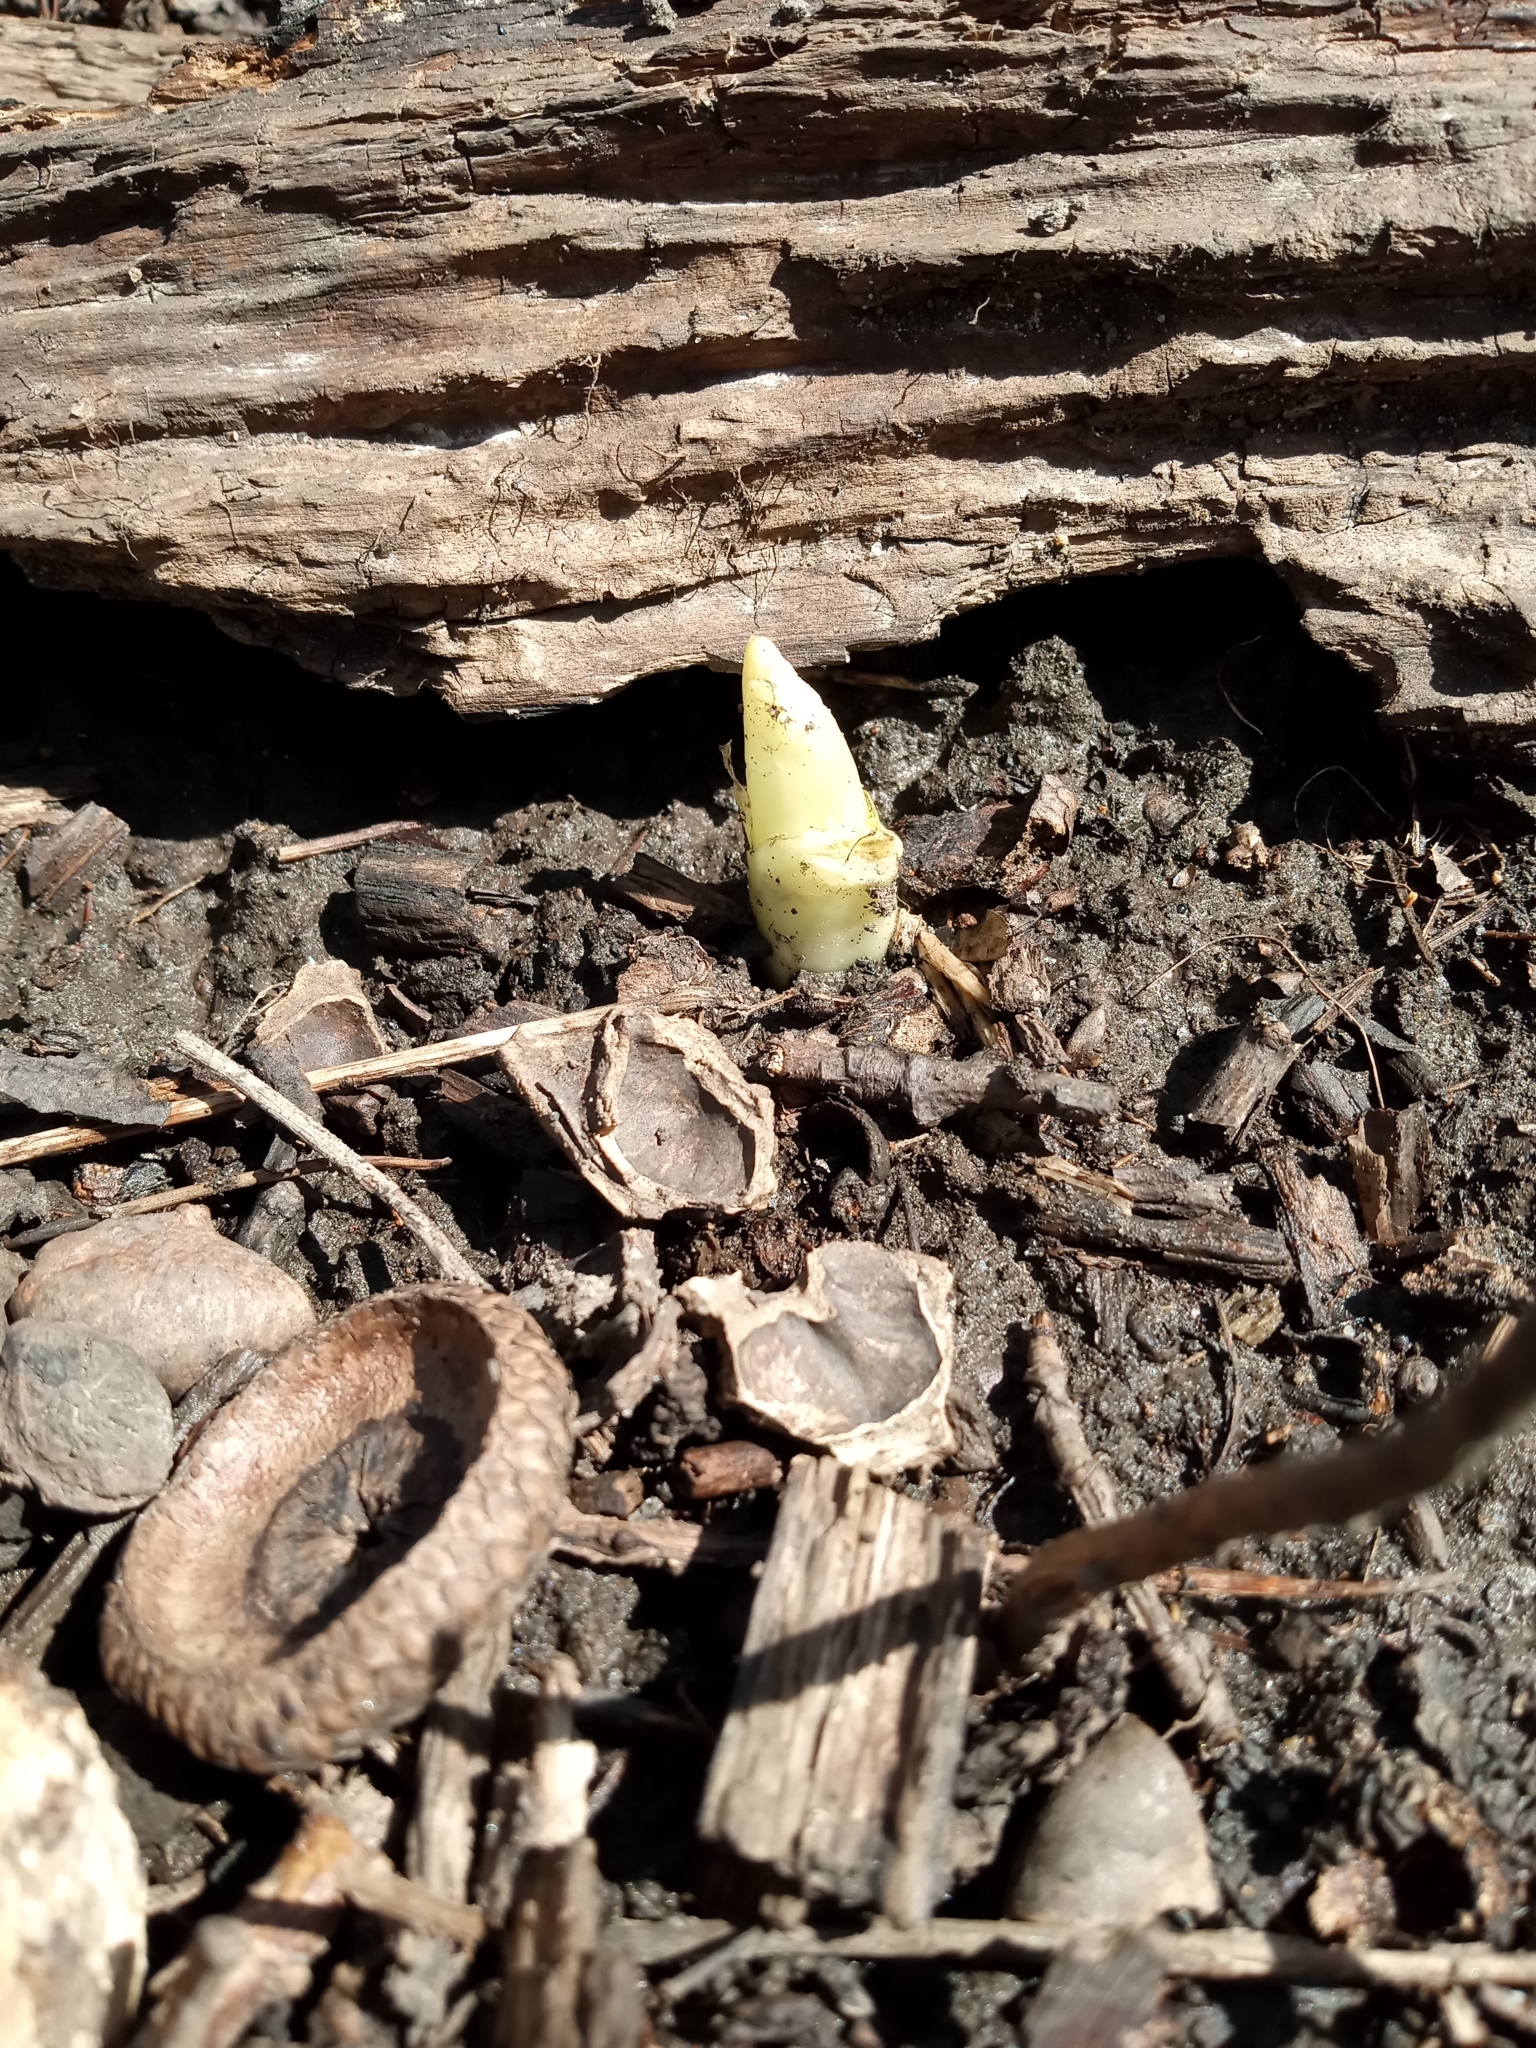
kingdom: Plantae
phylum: Tracheophyta
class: Magnoliopsida
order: Ranunculales
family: Berberidaceae
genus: Podophyllum
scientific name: Podophyllum peltatum
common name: Wild mandrake
